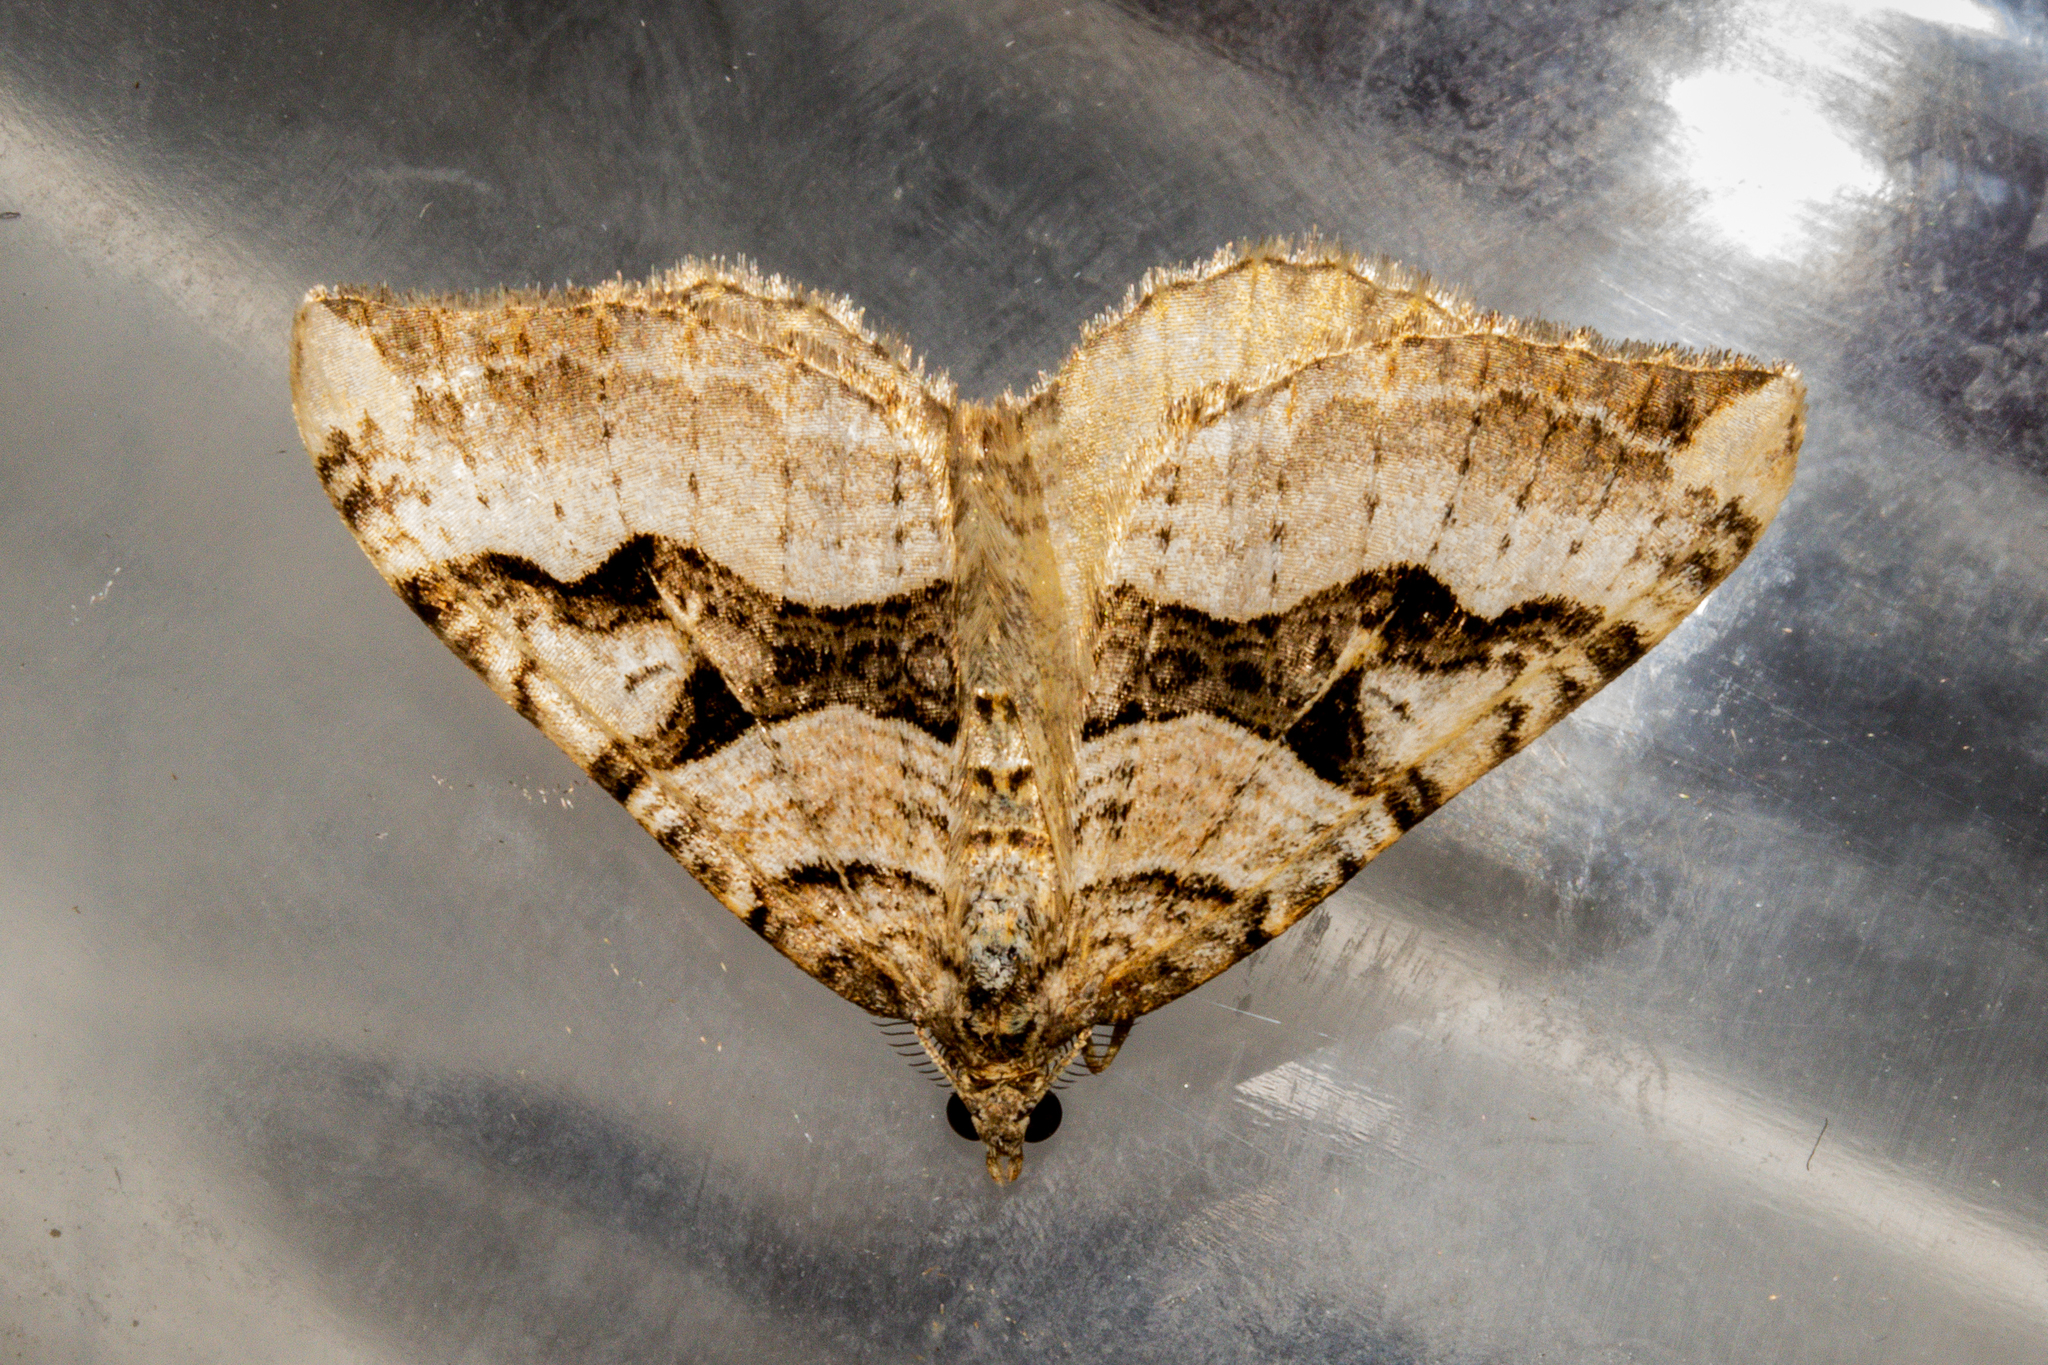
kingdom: Animalia
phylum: Arthropoda
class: Insecta
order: Lepidoptera
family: Geometridae
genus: Xanthorhoe
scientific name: Xanthorhoe semifissata
